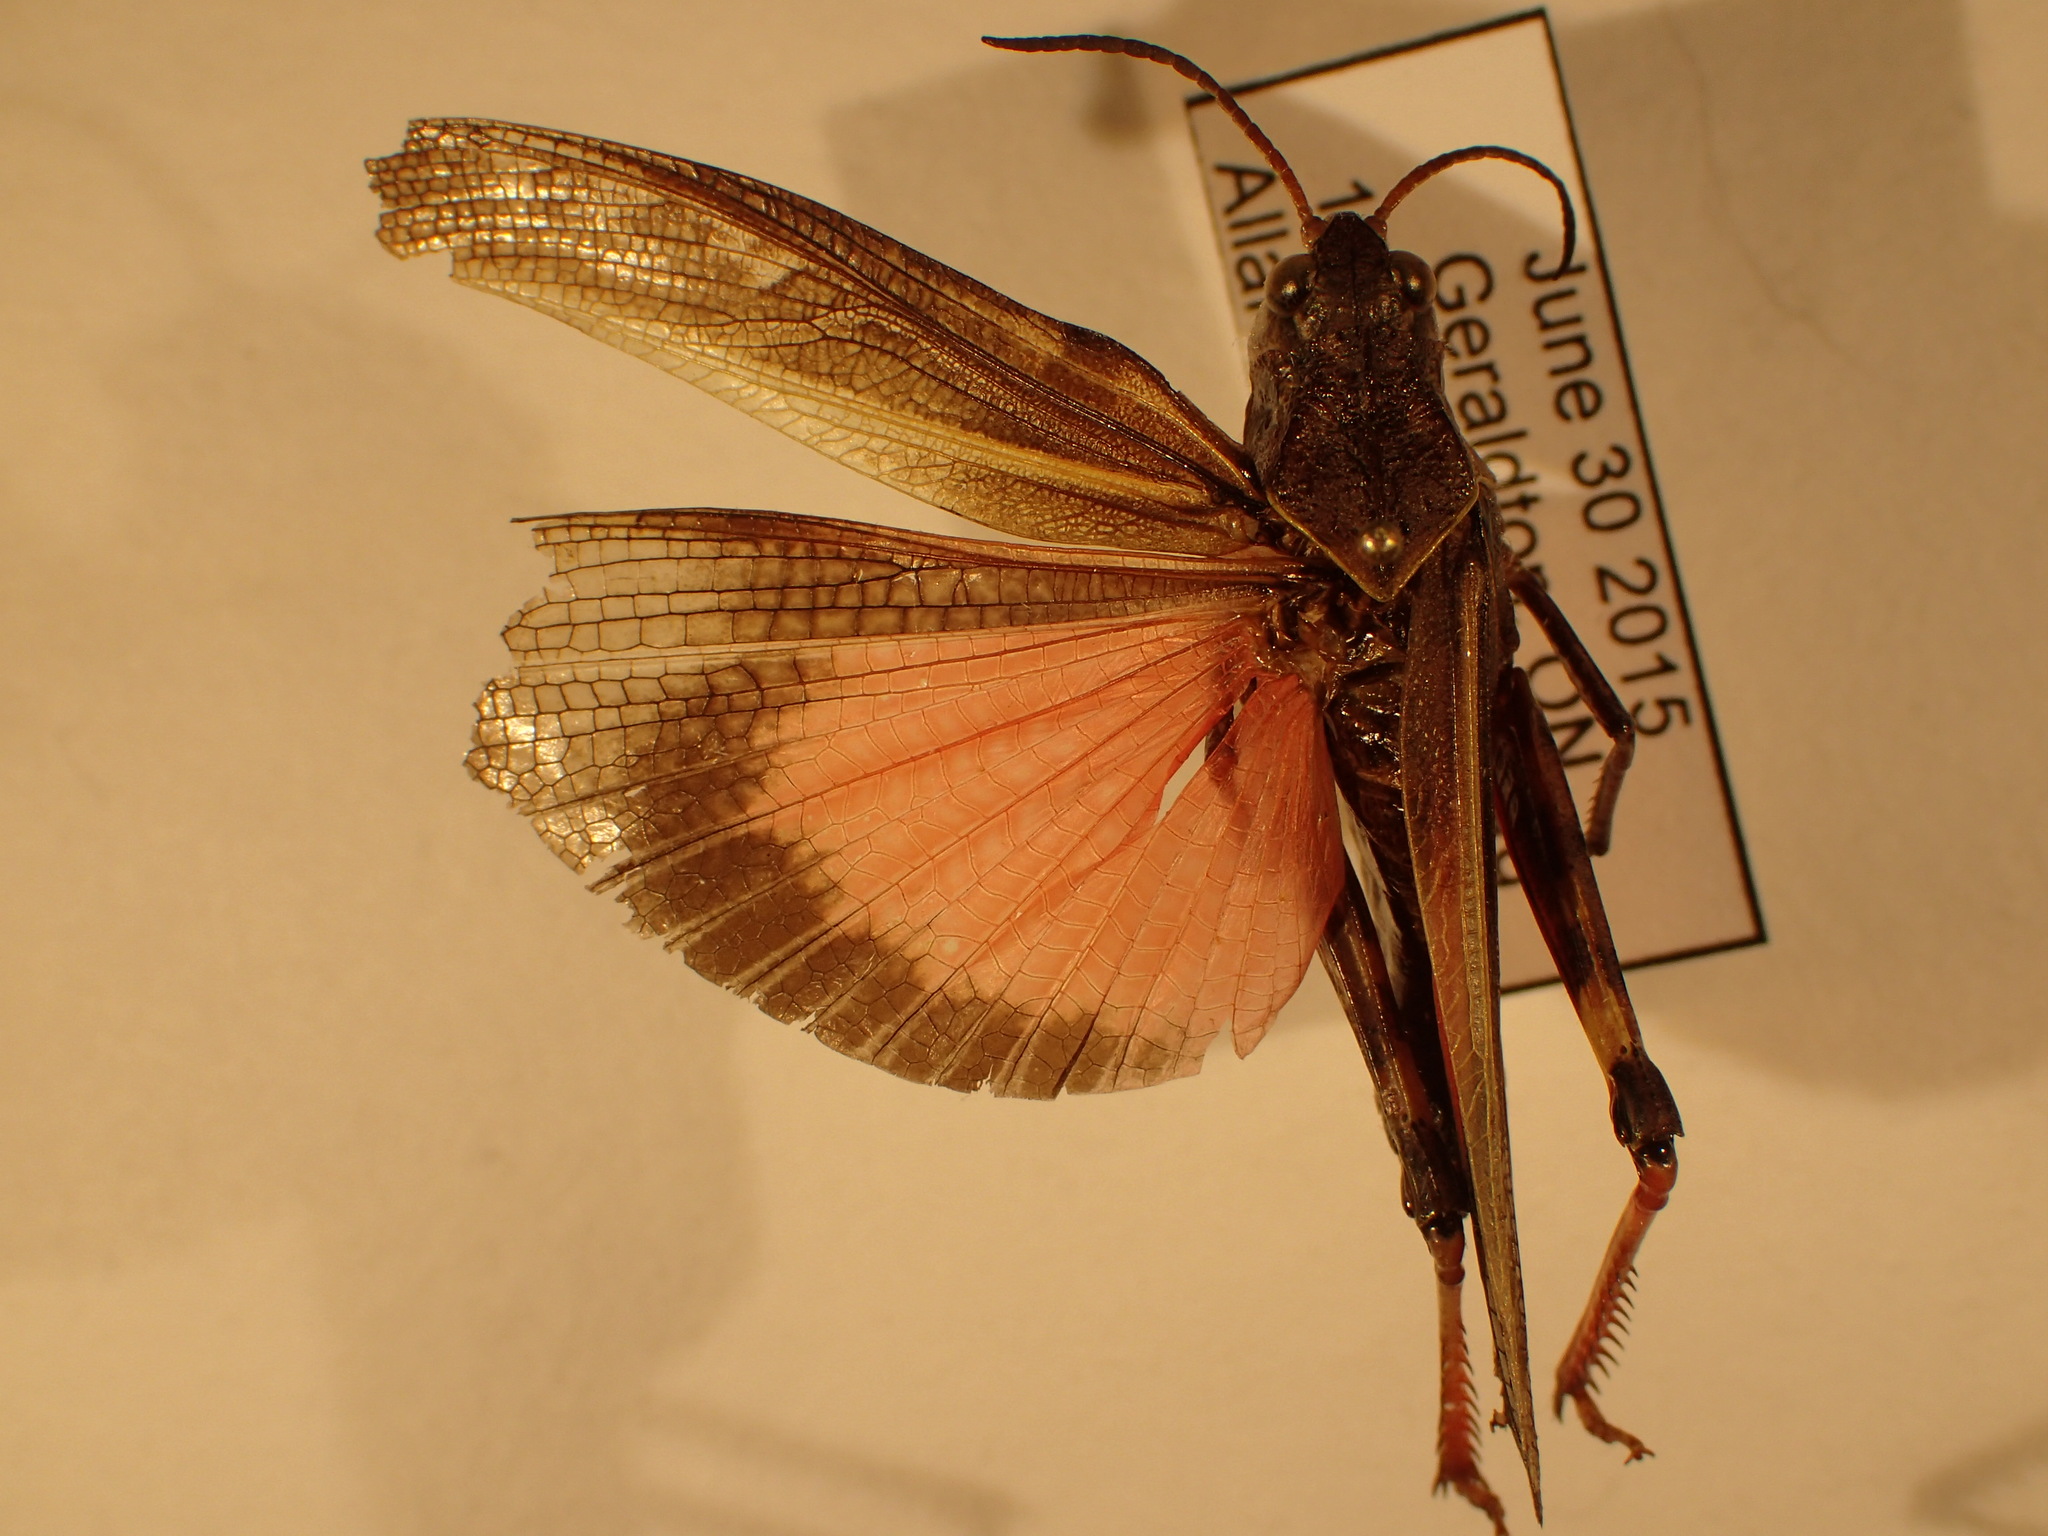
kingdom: Animalia
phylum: Arthropoda
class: Insecta
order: Orthoptera
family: Acrididae
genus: Pardalophora
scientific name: Pardalophora apiculata
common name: Coral-winged locust
